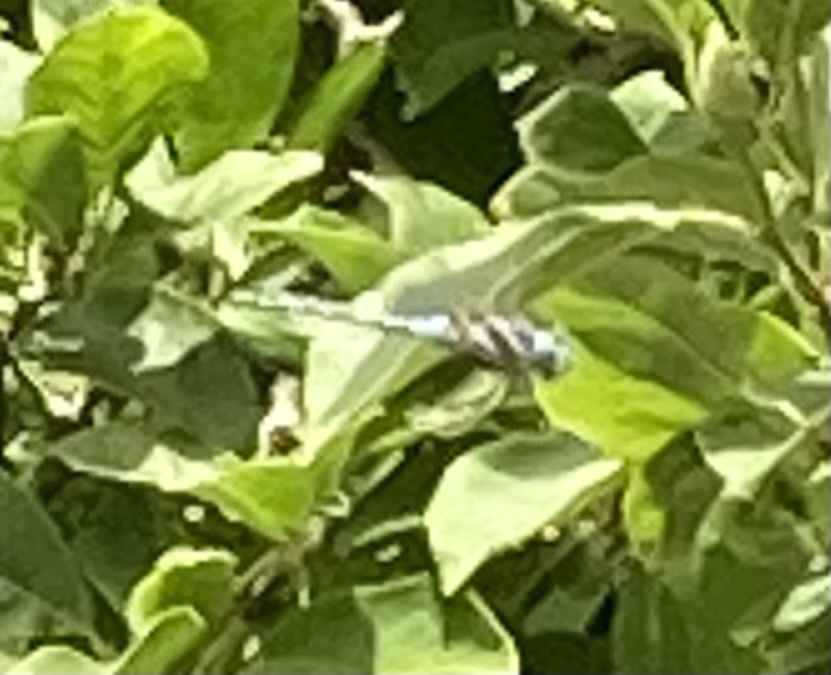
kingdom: Animalia
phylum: Arthropoda
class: Insecta
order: Odonata
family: Aeshnidae
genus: Rhionaeschna
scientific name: Rhionaeschna multicolor
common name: Blue-eyed darner
